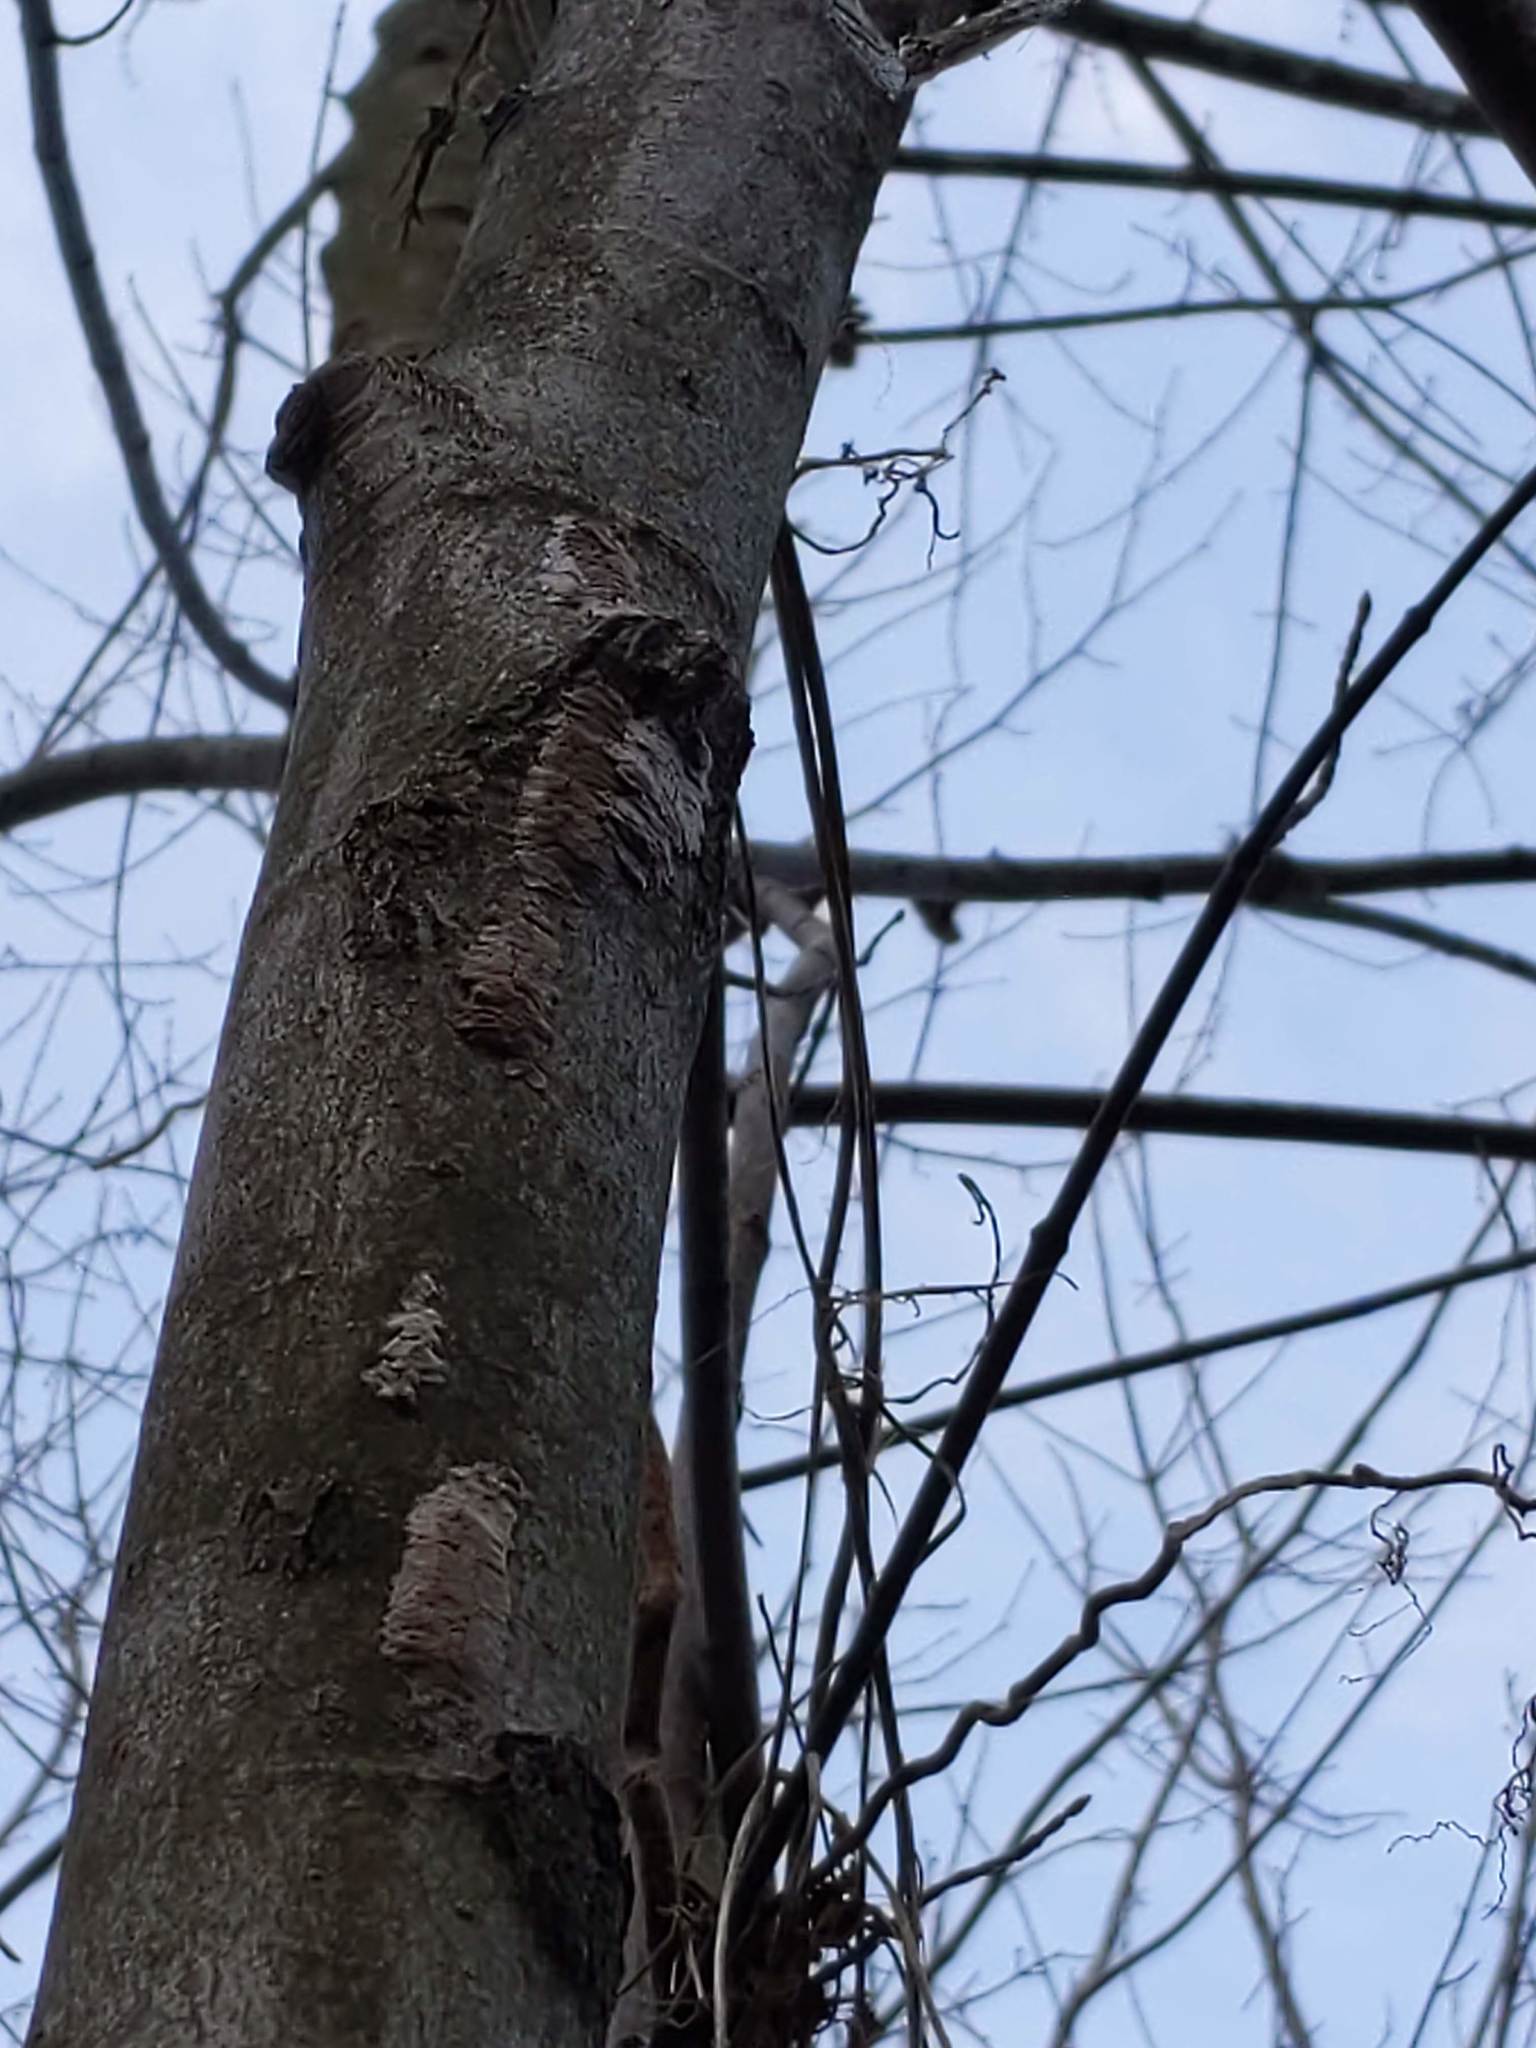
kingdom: Animalia
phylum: Arthropoda
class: Insecta
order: Hemiptera
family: Fulgoridae
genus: Lycorma
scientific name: Lycorma delicatula
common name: Spotted lanternfly
